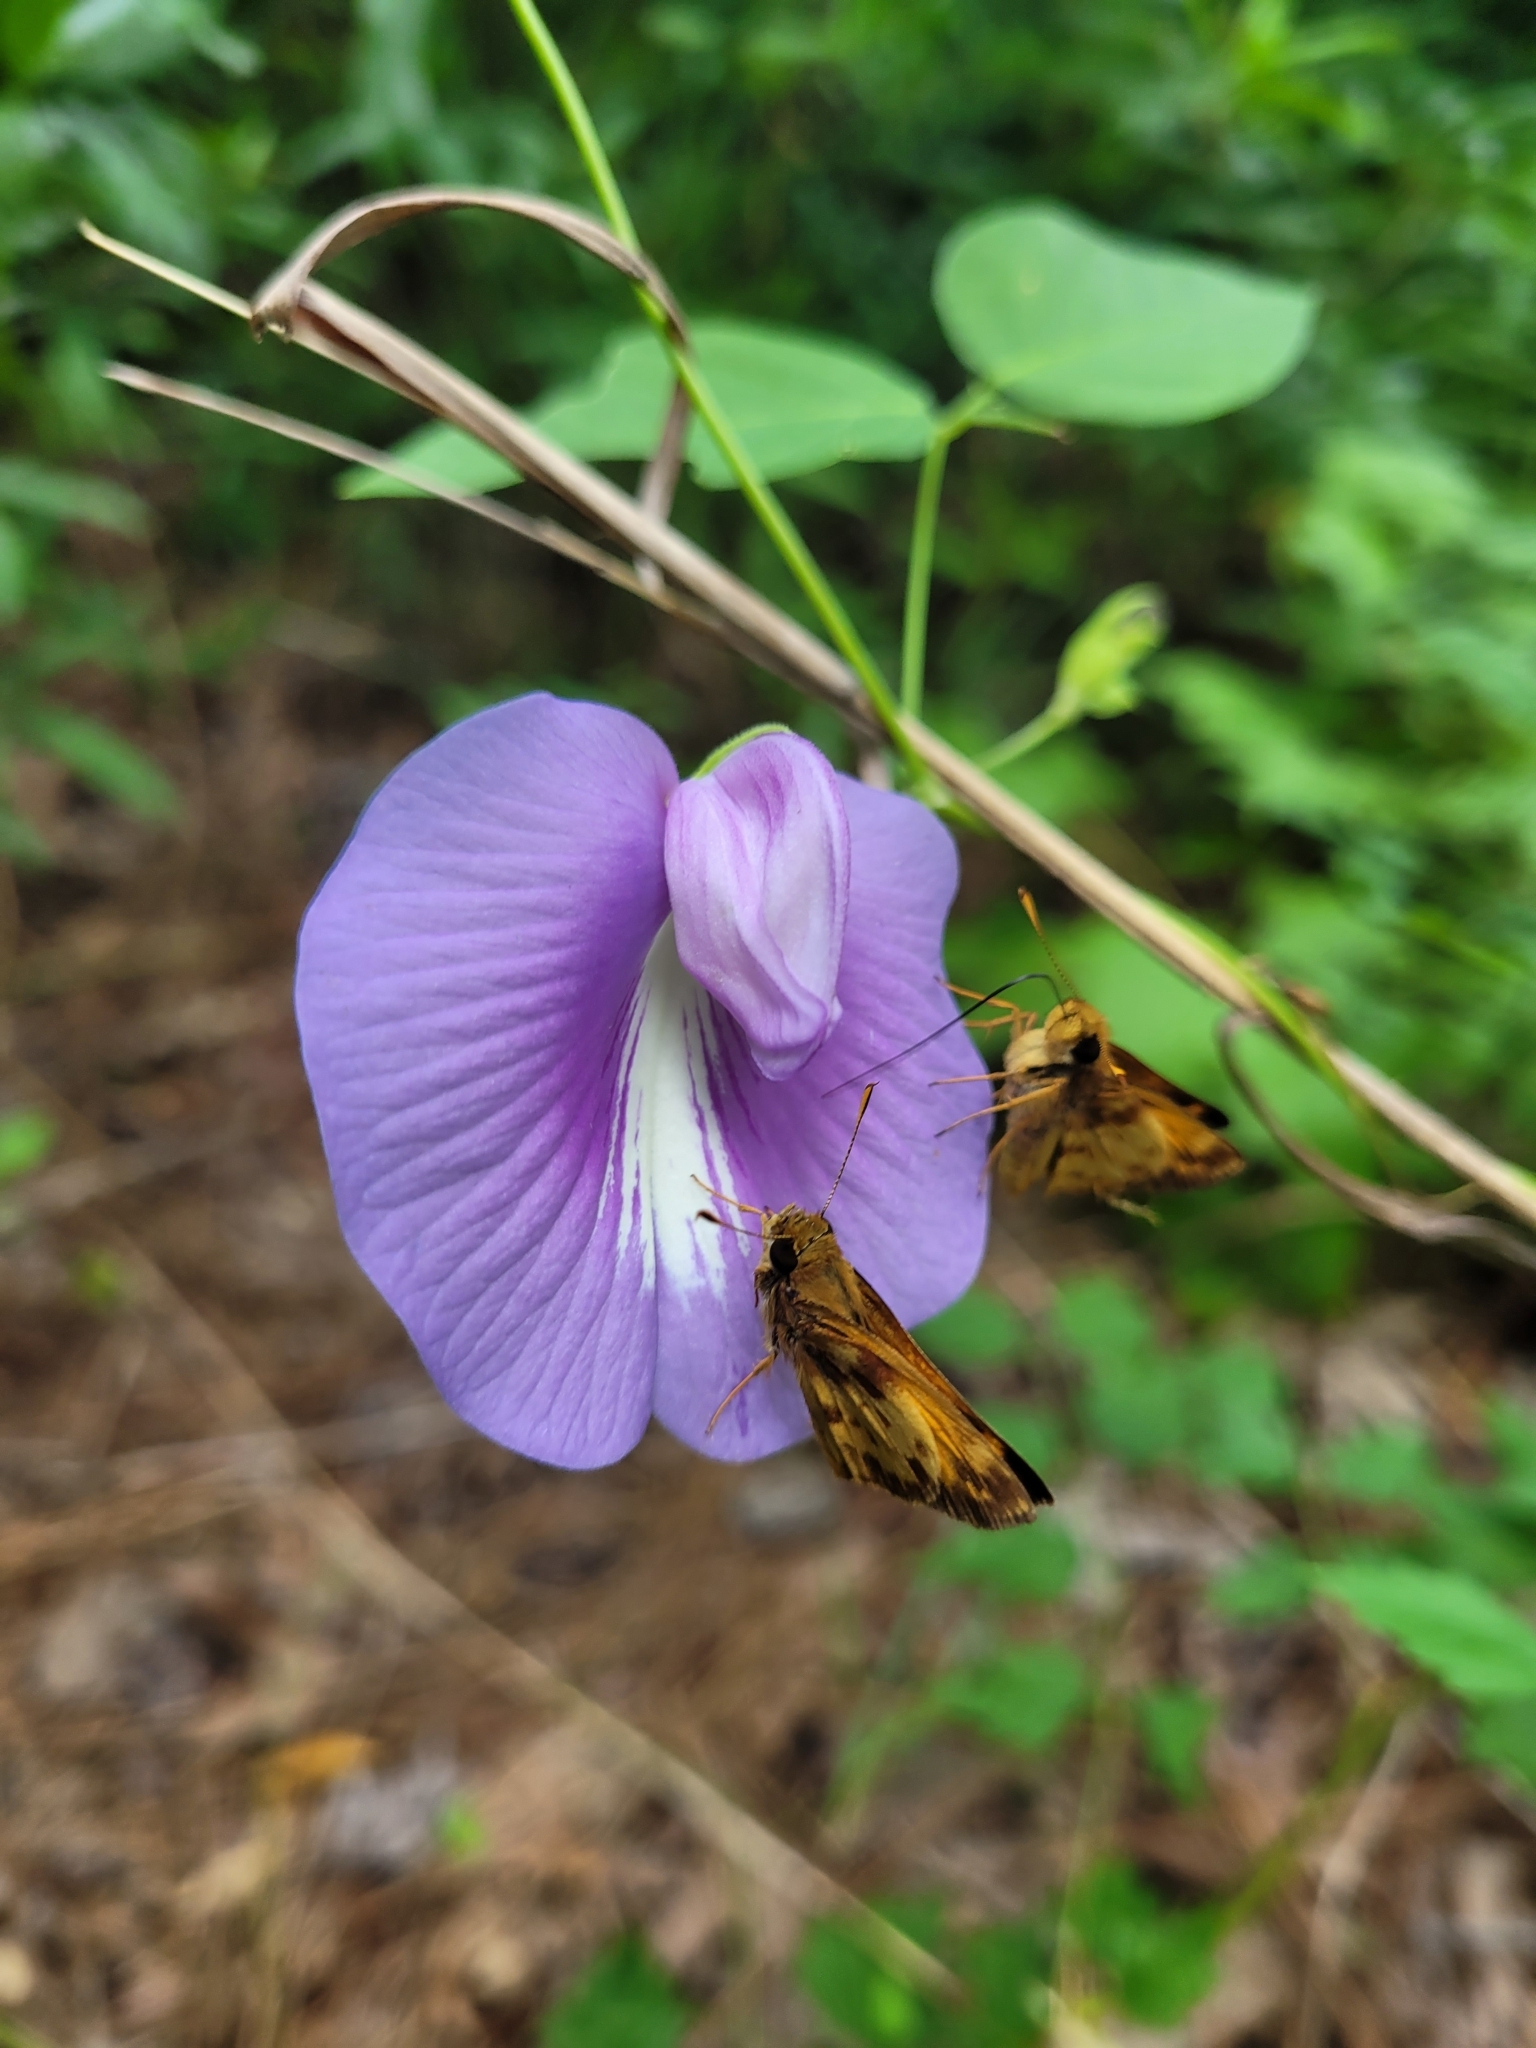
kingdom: Animalia
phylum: Arthropoda
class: Insecta
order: Lepidoptera
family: Hesperiidae
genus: Lon
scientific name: Lon zabulon
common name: Zabulon skipper
